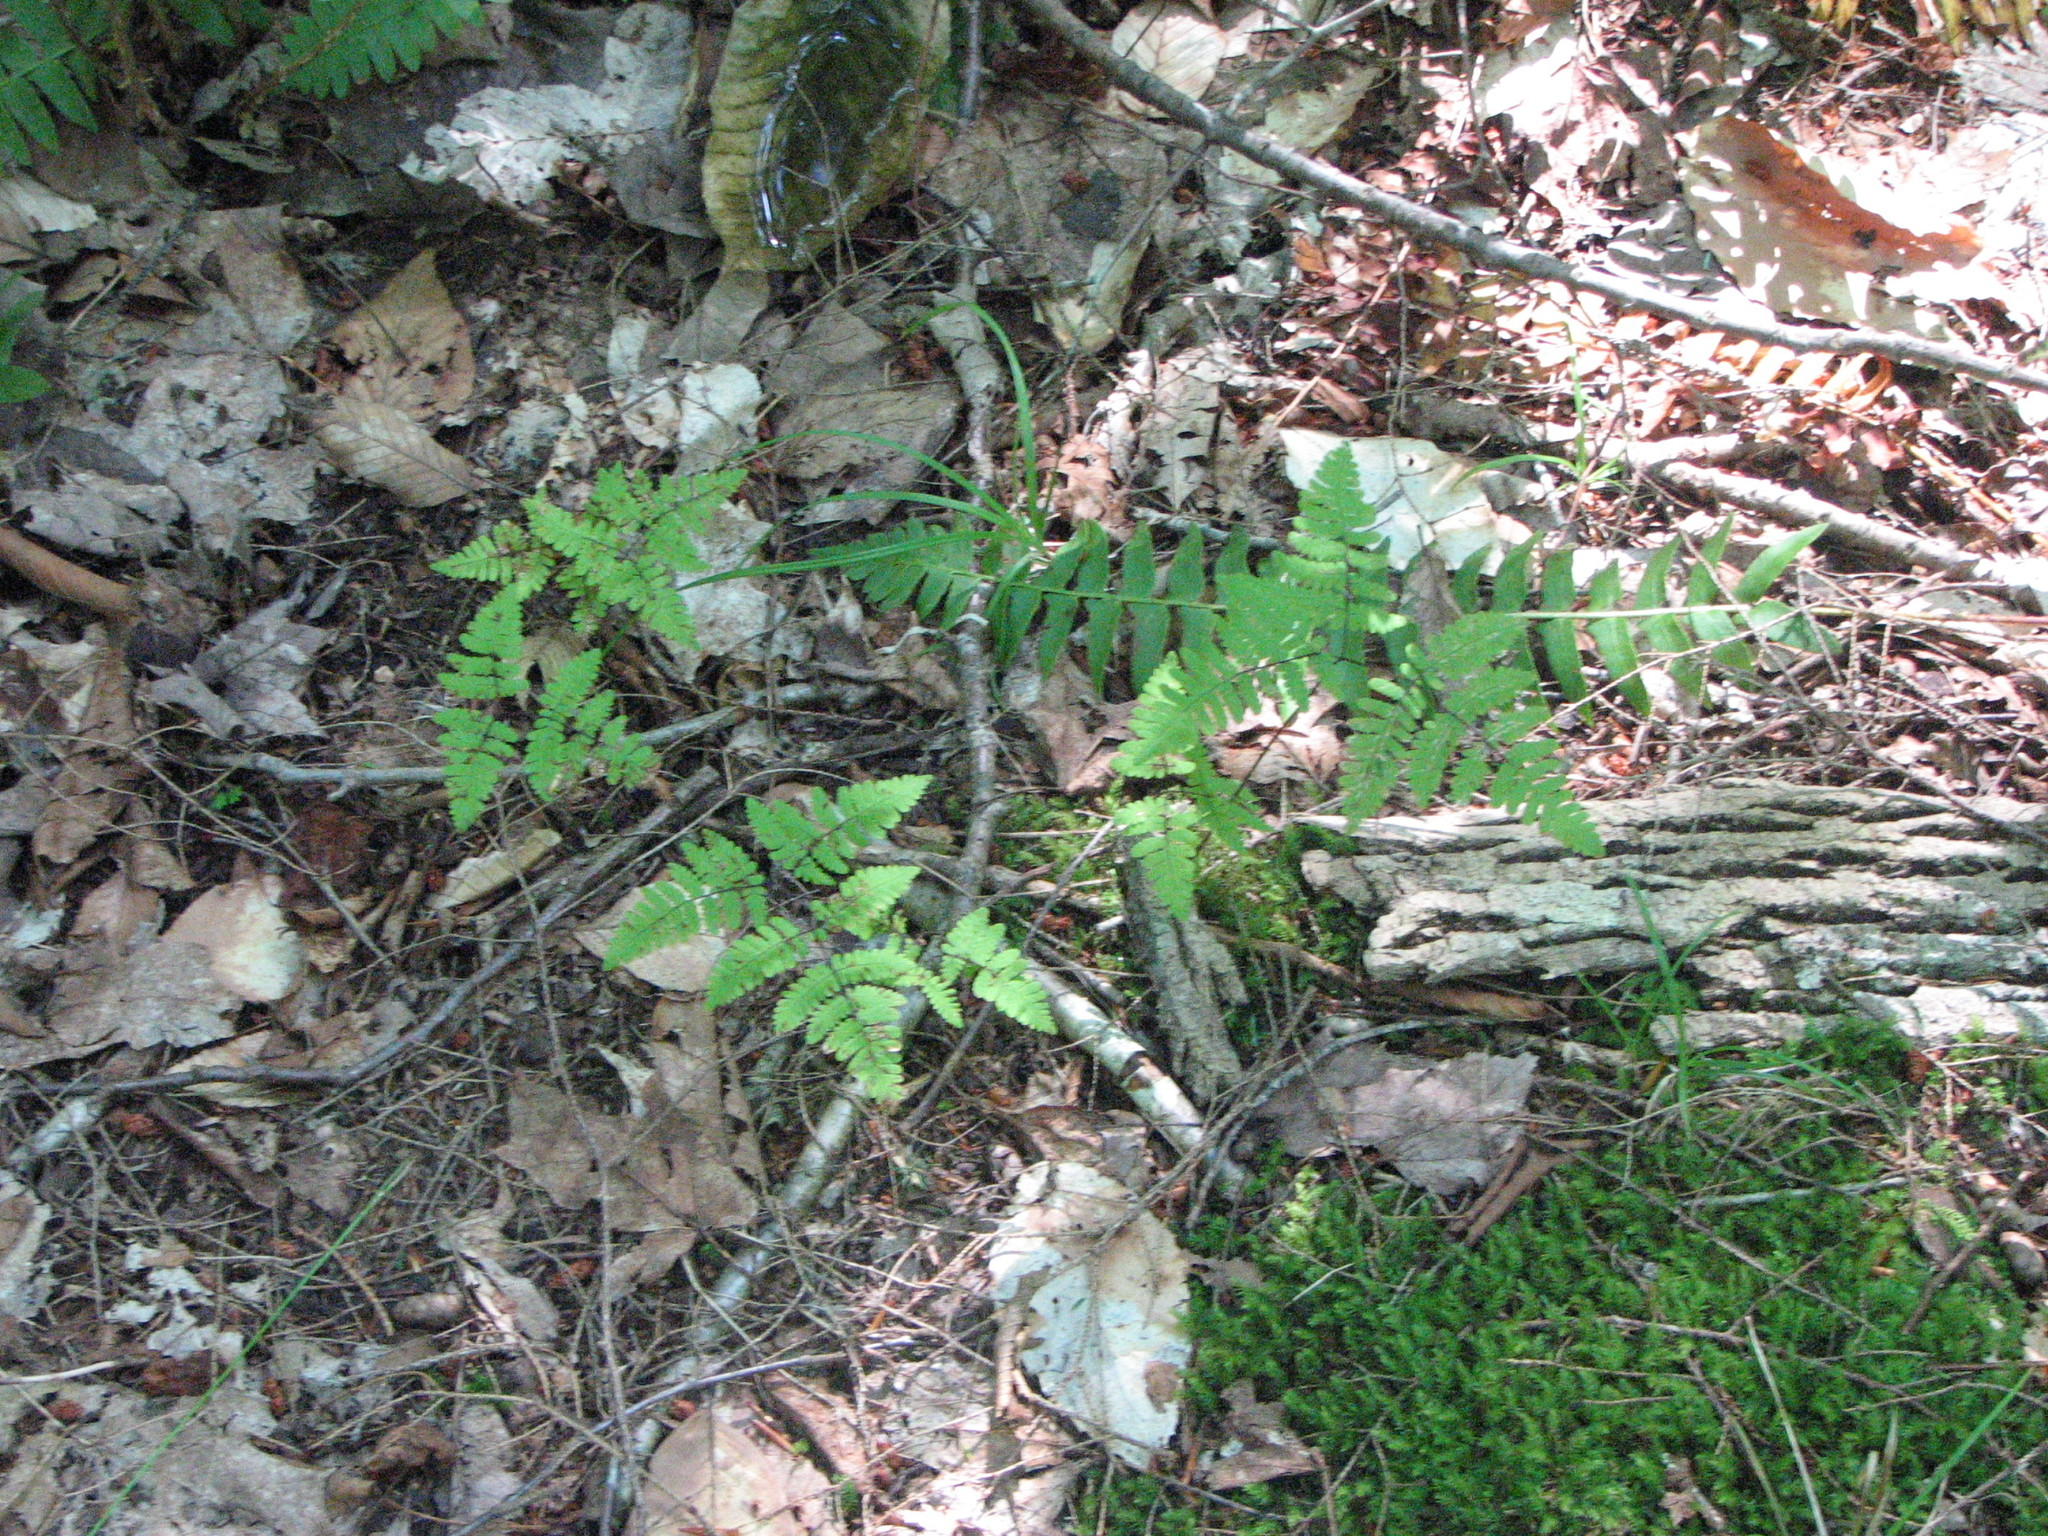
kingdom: Plantae
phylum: Tracheophyta
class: Polypodiopsida
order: Polypodiales
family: Cystopteridaceae
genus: Gymnocarpium
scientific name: Gymnocarpium dryopteris
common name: Oak fern
